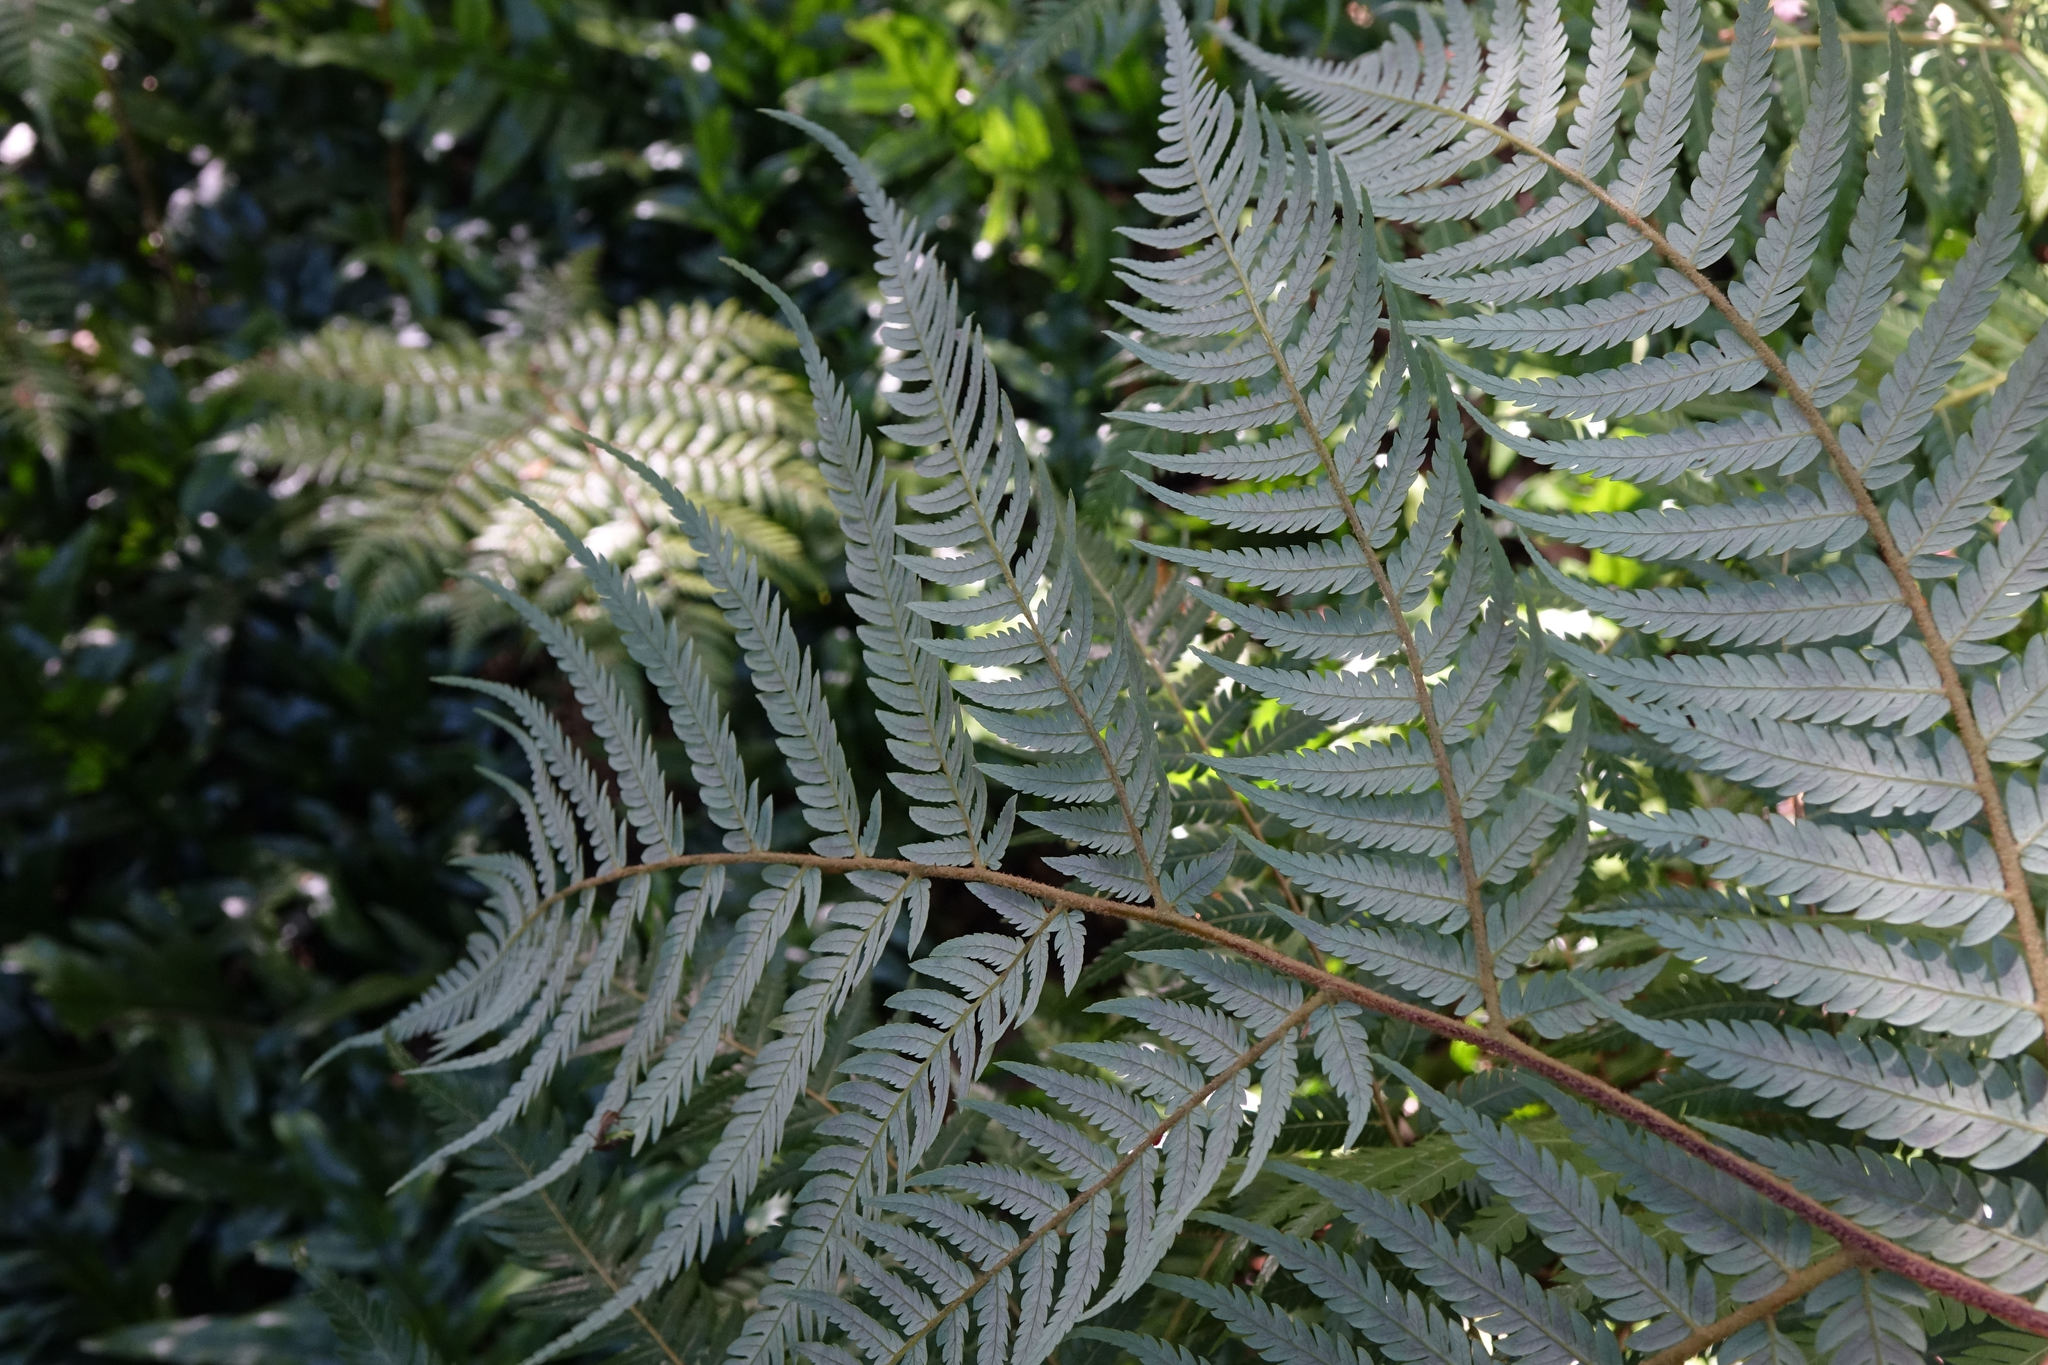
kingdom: Plantae
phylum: Tracheophyta
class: Polypodiopsida
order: Cyatheales
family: Cyatheaceae
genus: Alsophila
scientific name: Alsophila dealbata
